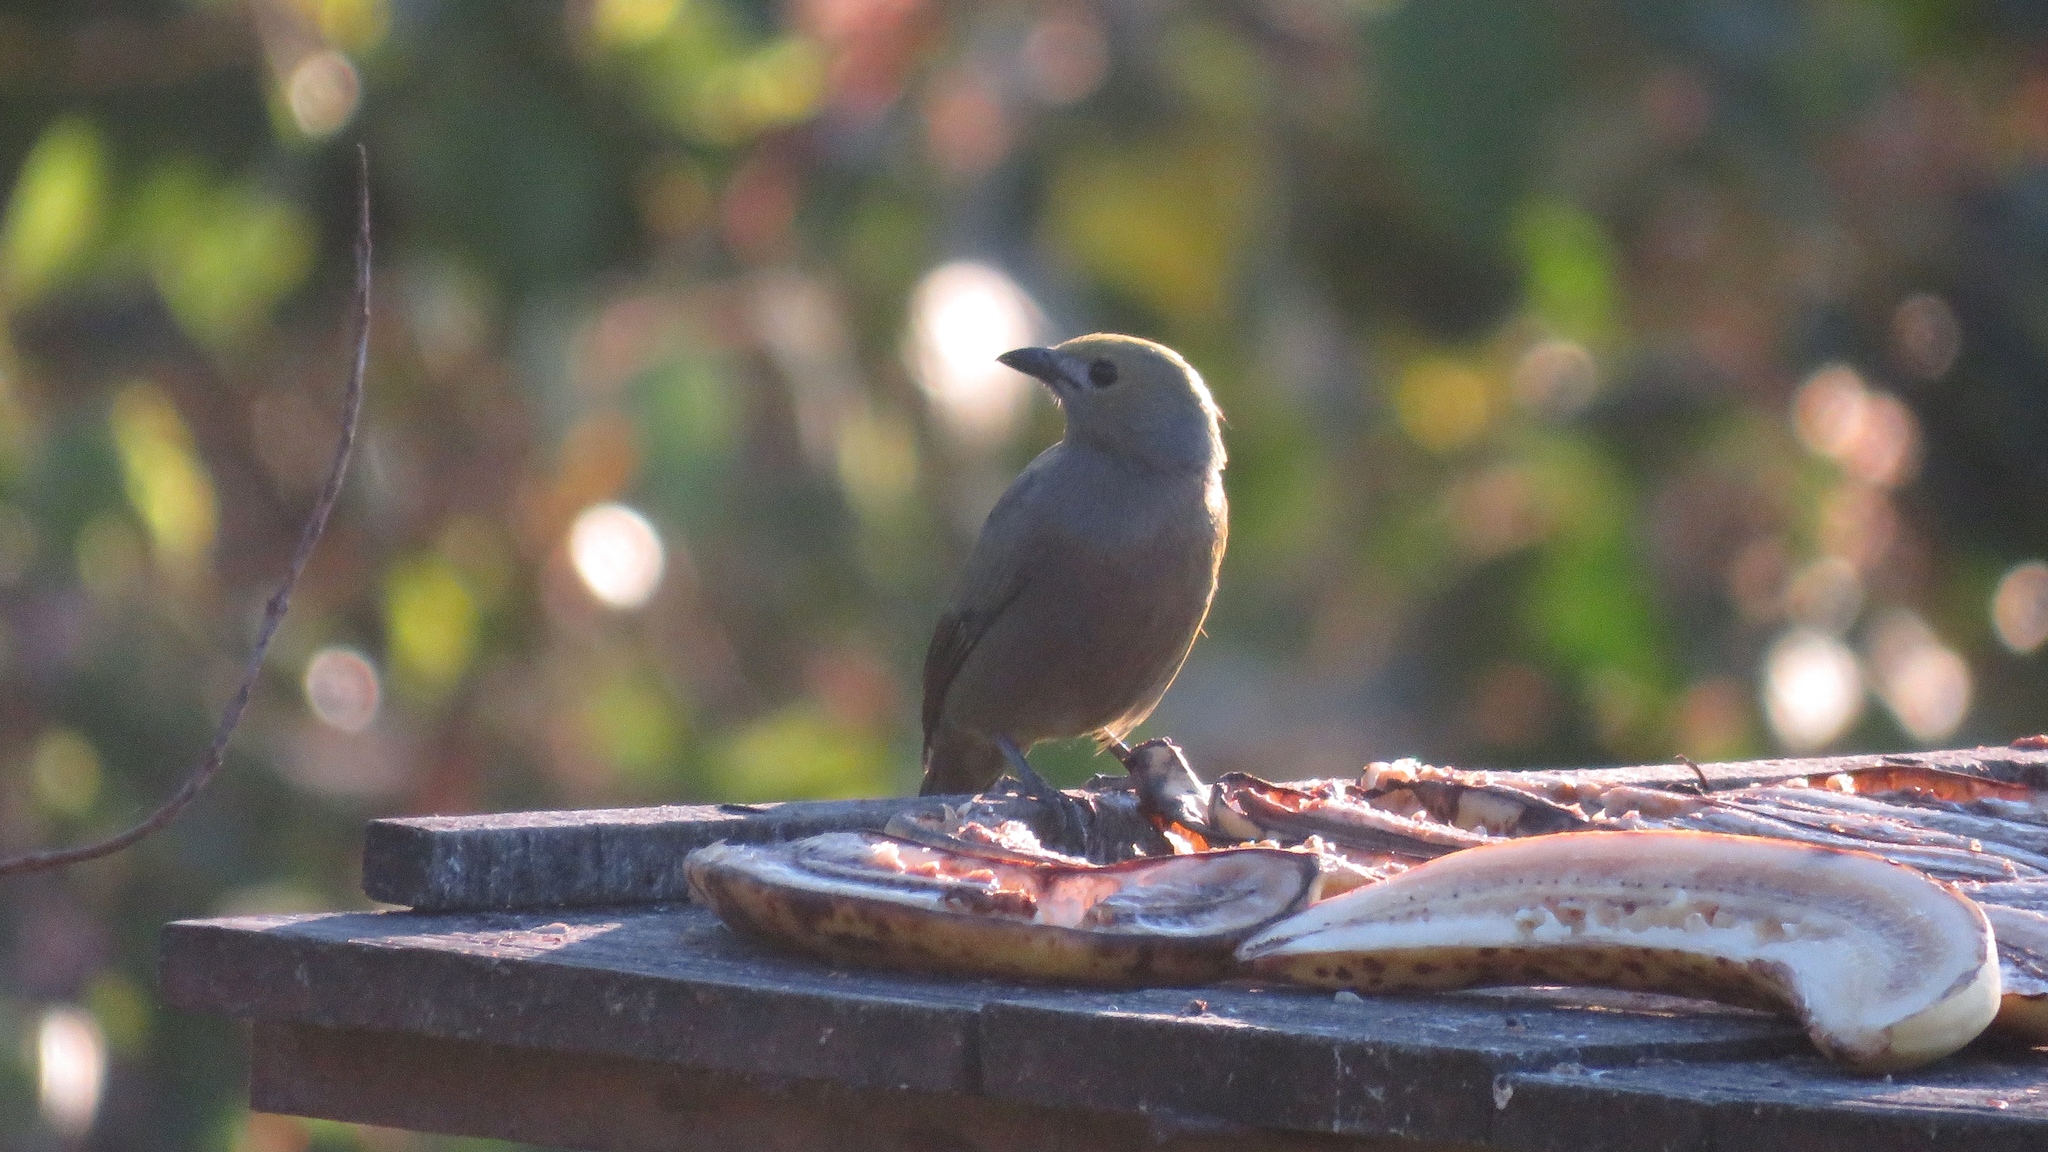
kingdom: Animalia
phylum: Chordata
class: Aves
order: Passeriformes
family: Thraupidae
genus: Thraupis
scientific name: Thraupis palmarum
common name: Palm tanager
